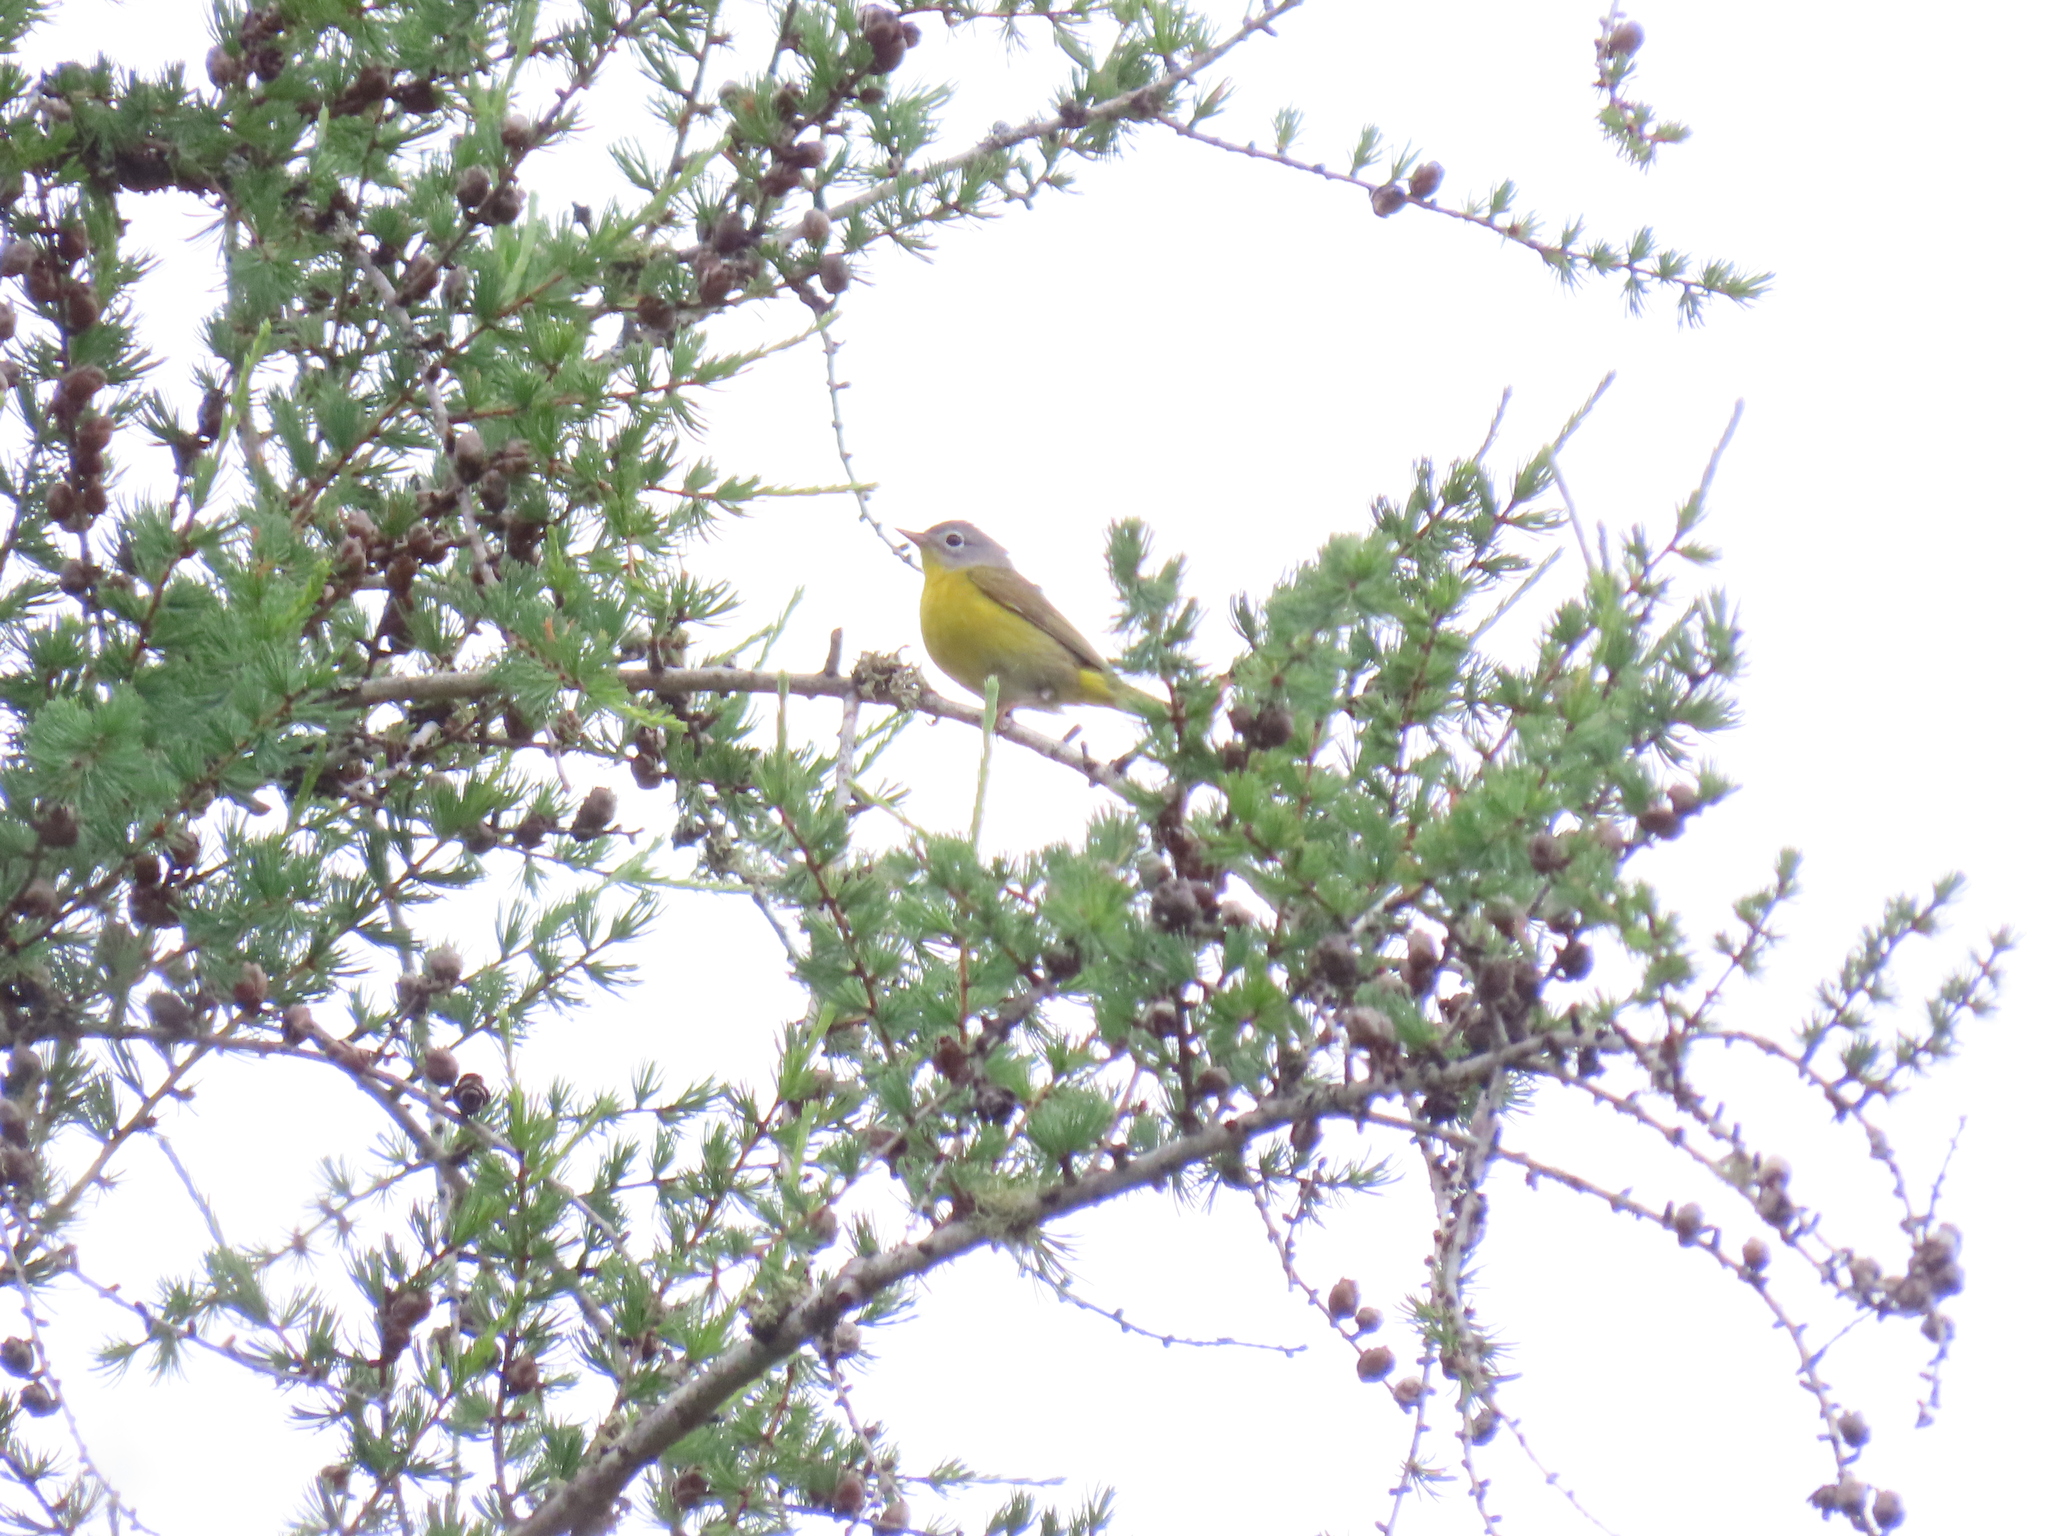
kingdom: Animalia
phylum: Chordata
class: Aves
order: Passeriformes
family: Parulidae
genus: Leiothlypis
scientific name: Leiothlypis ruficapilla
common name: Nashville warbler
